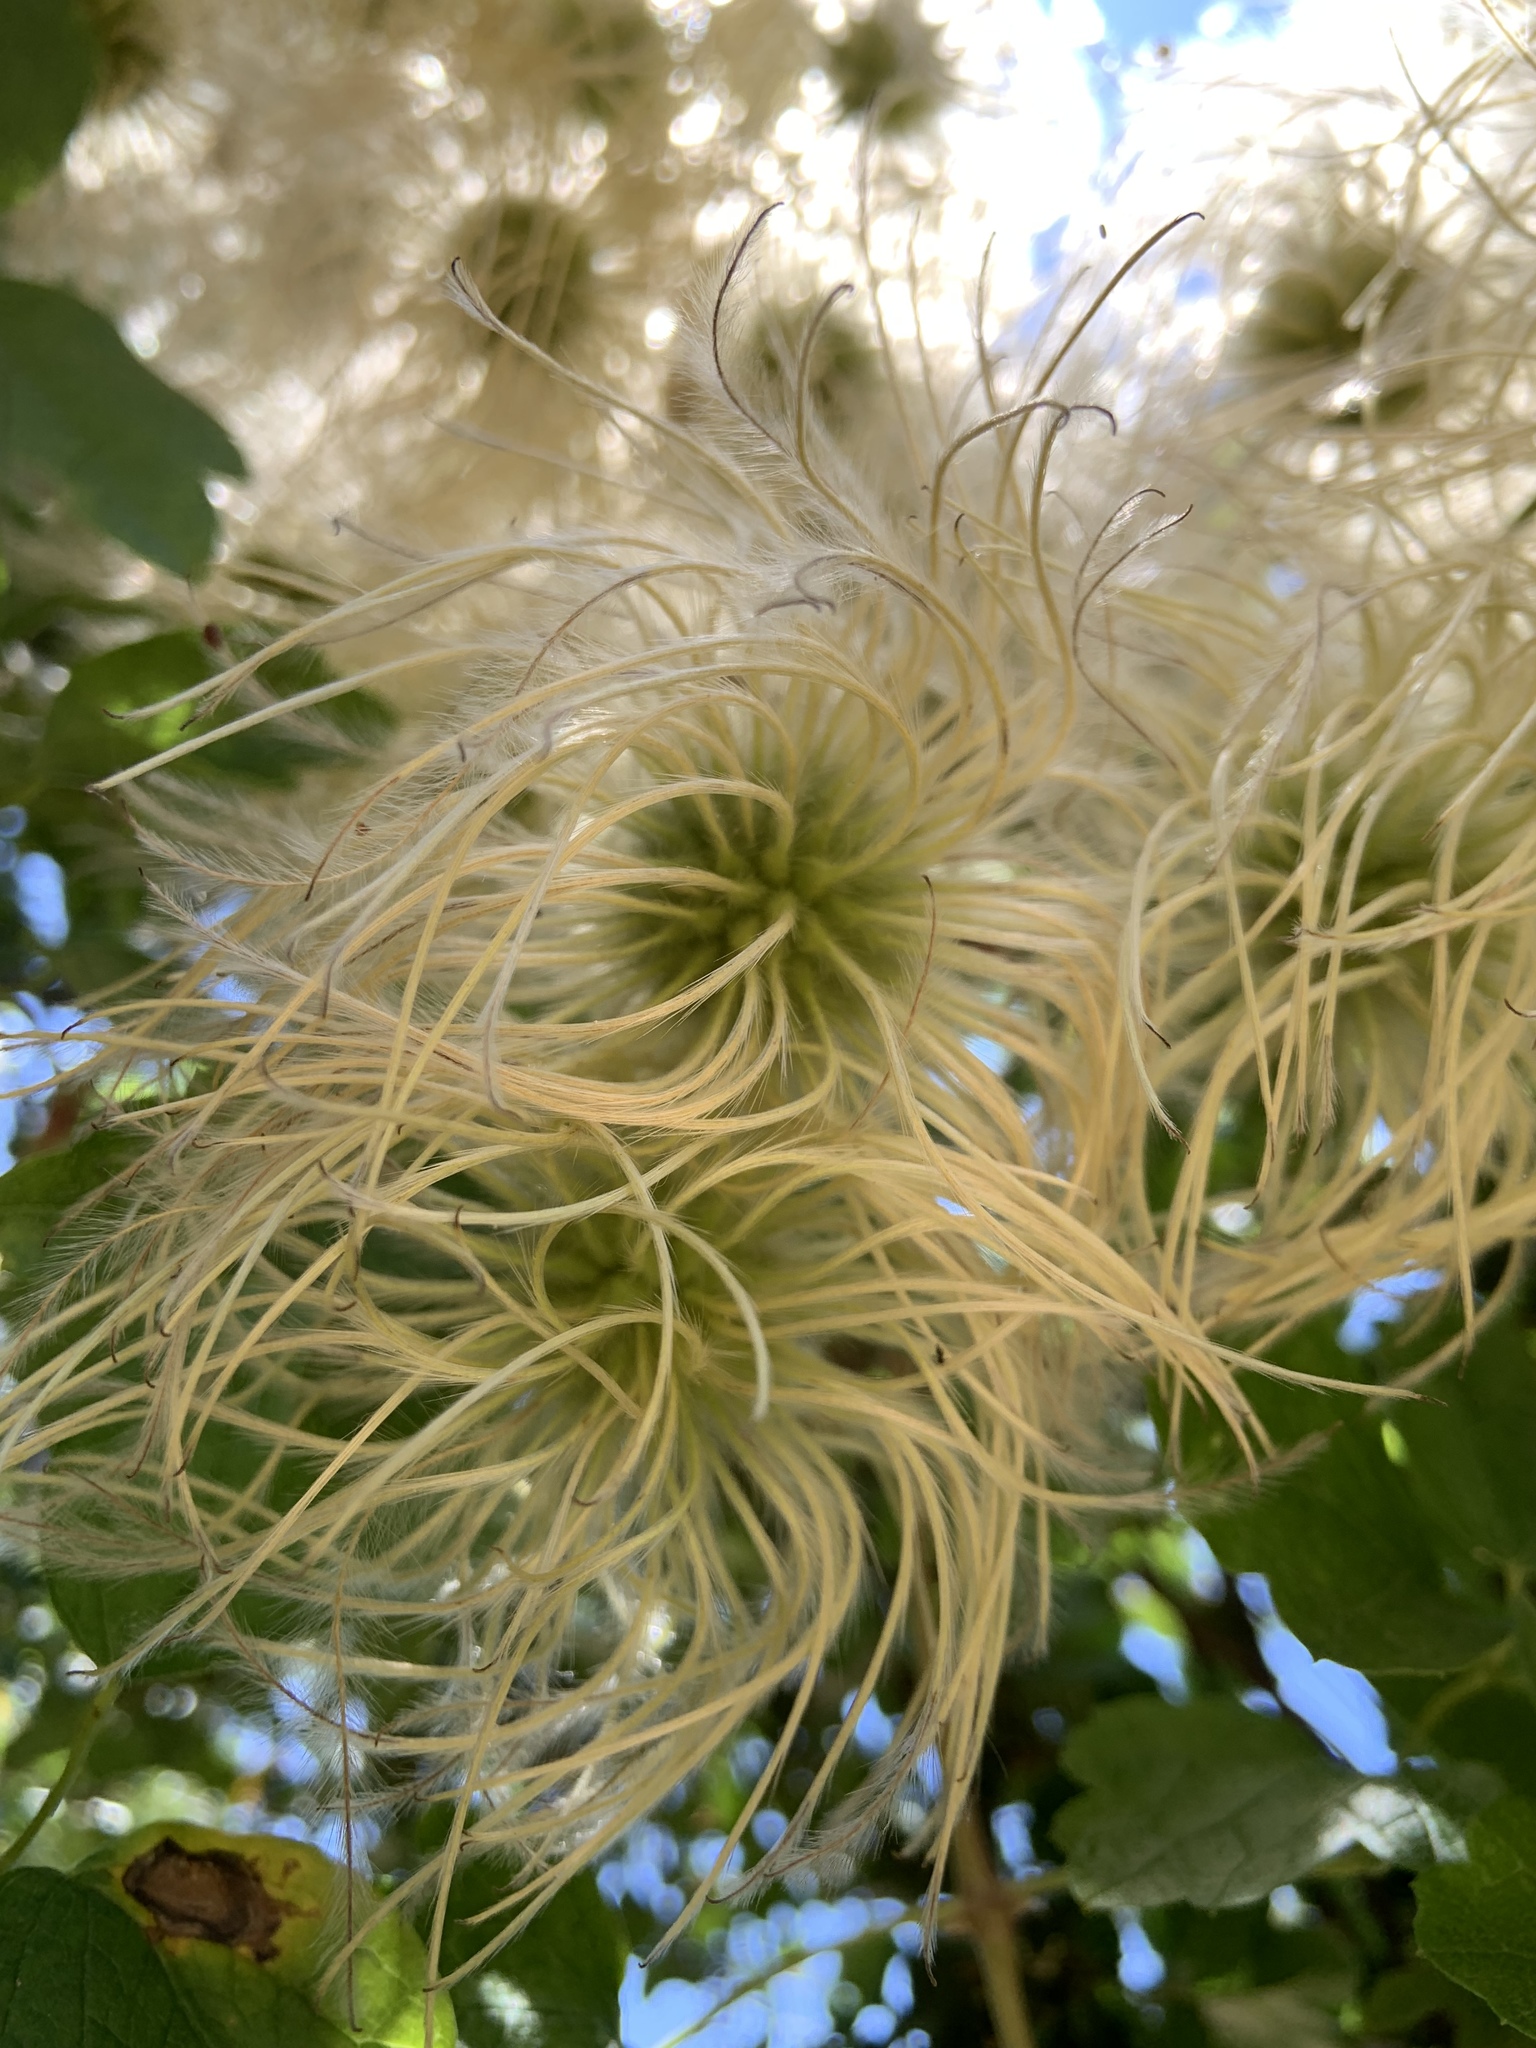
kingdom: Plantae
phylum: Tracheophyta
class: Magnoliopsida
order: Ranunculales
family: Ranunculaceae
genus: Clematis
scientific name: Clematis lasiantha
